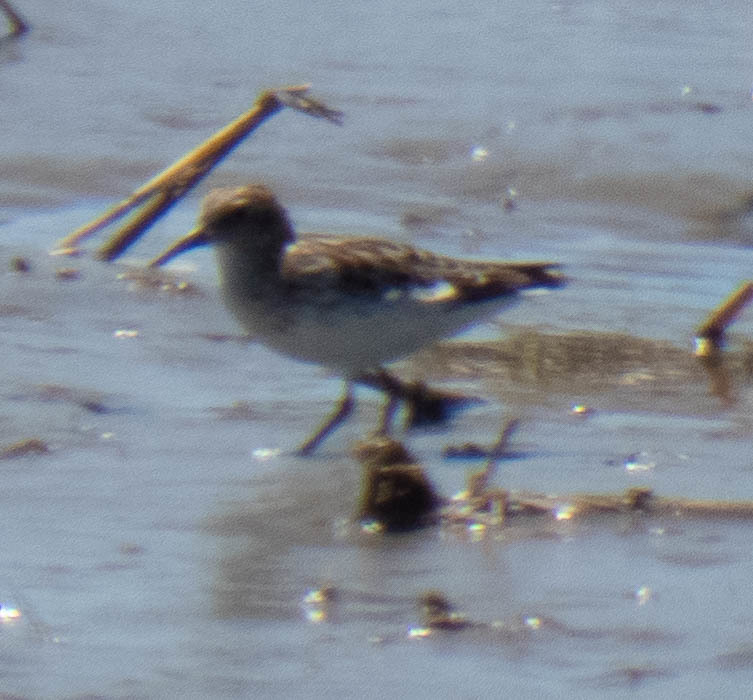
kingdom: Animalia
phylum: Chordata
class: Aves
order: Charadriiformes
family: Scolopacidae
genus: Calidris
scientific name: Calidris pusilla
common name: Semipalmated sandpiper
